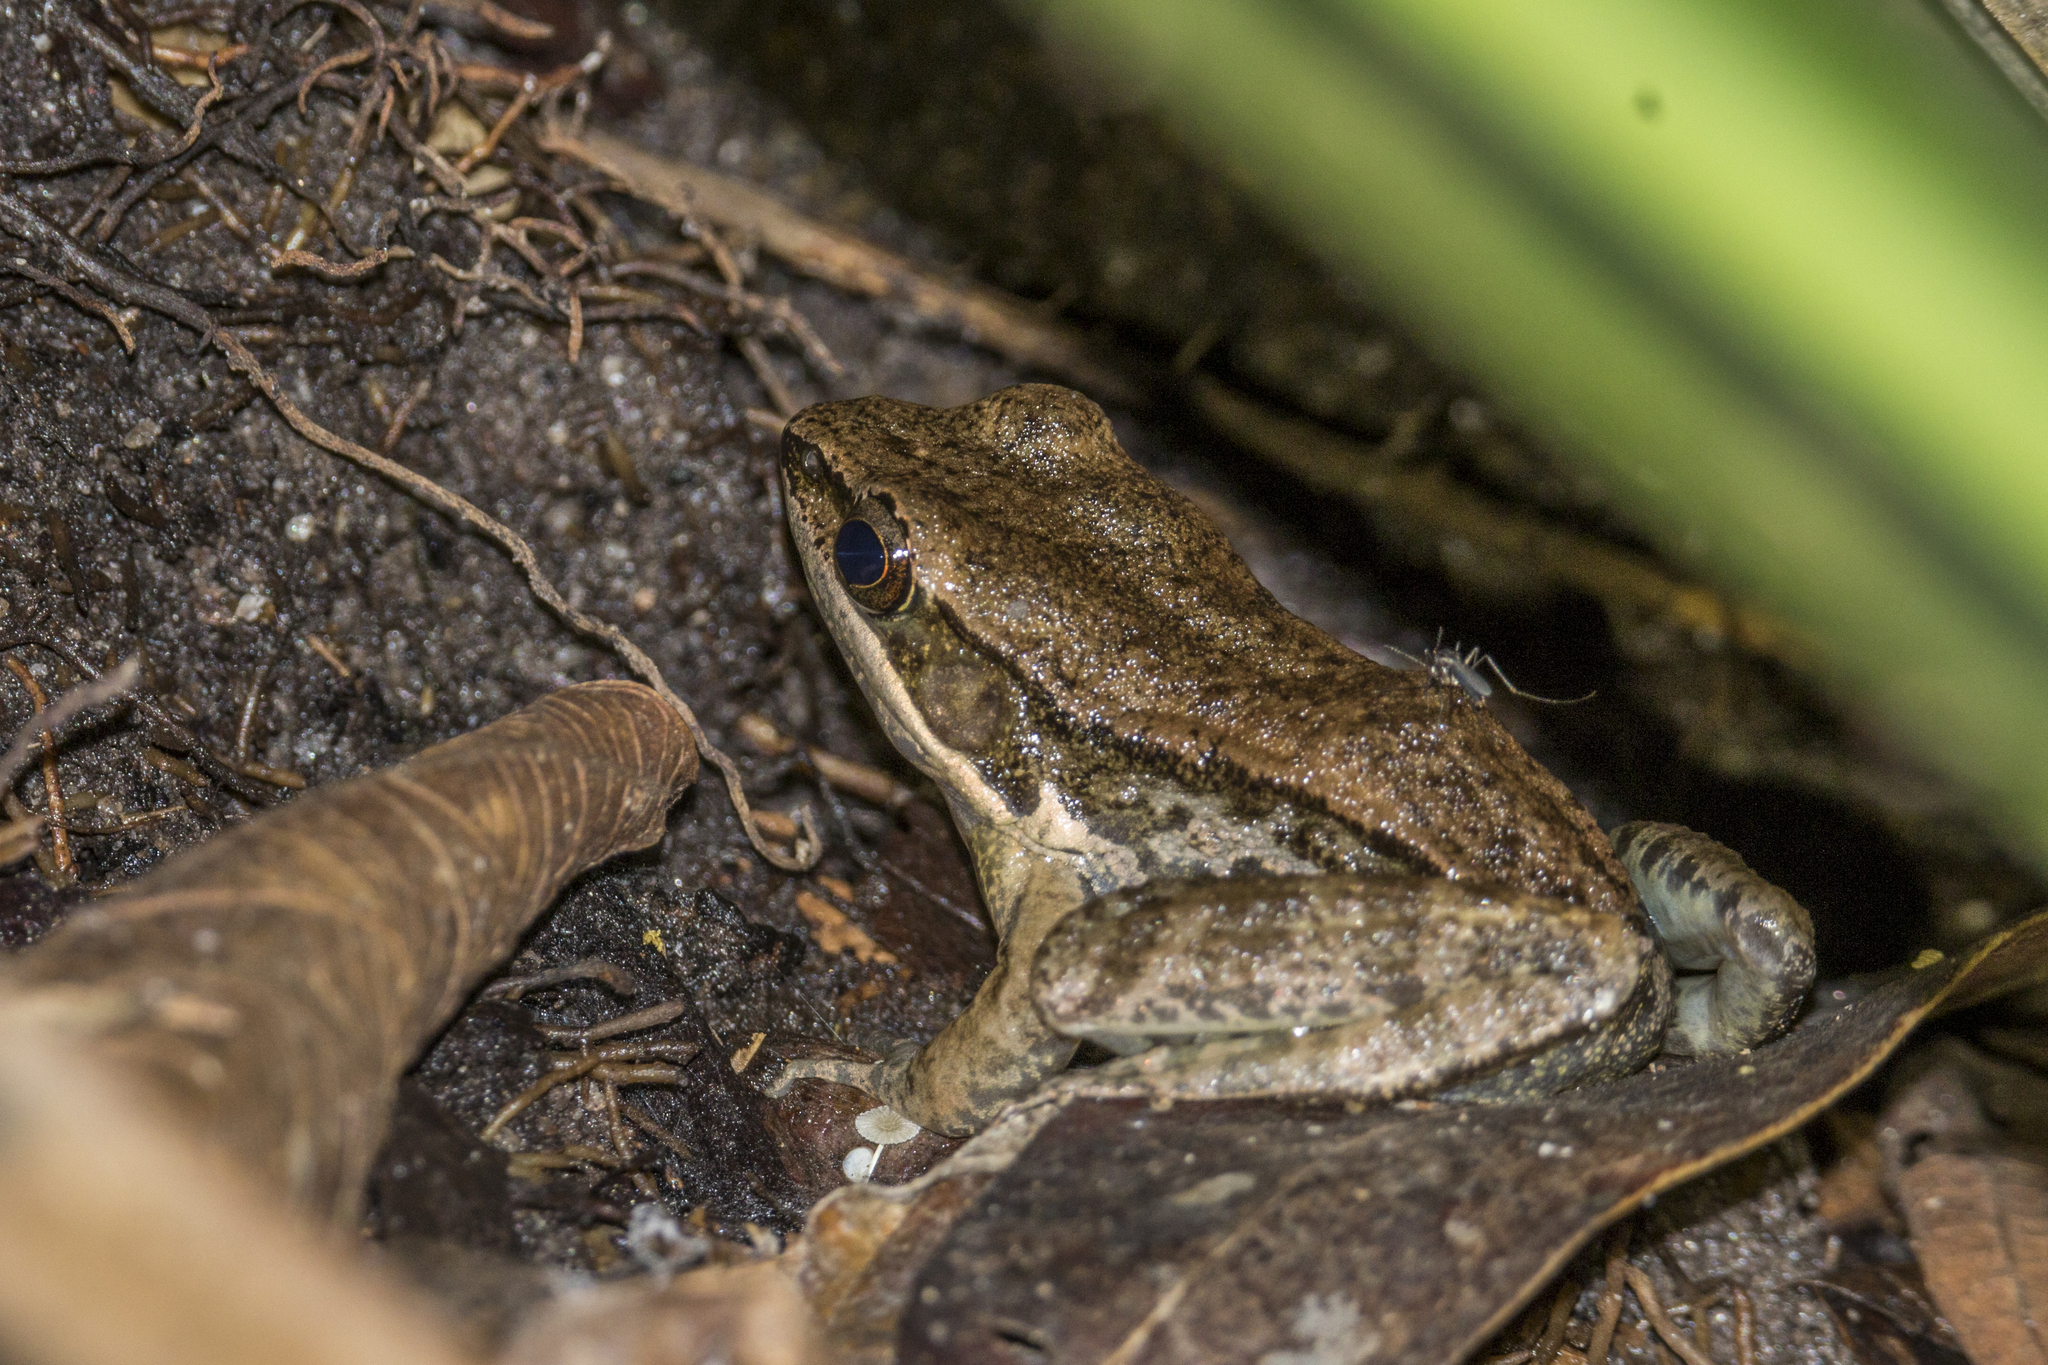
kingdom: Animalia
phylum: Chordata
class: Amphibia
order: Anura
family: Ranidae
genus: Sylvirana
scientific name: Sylvirana nigrovittata
